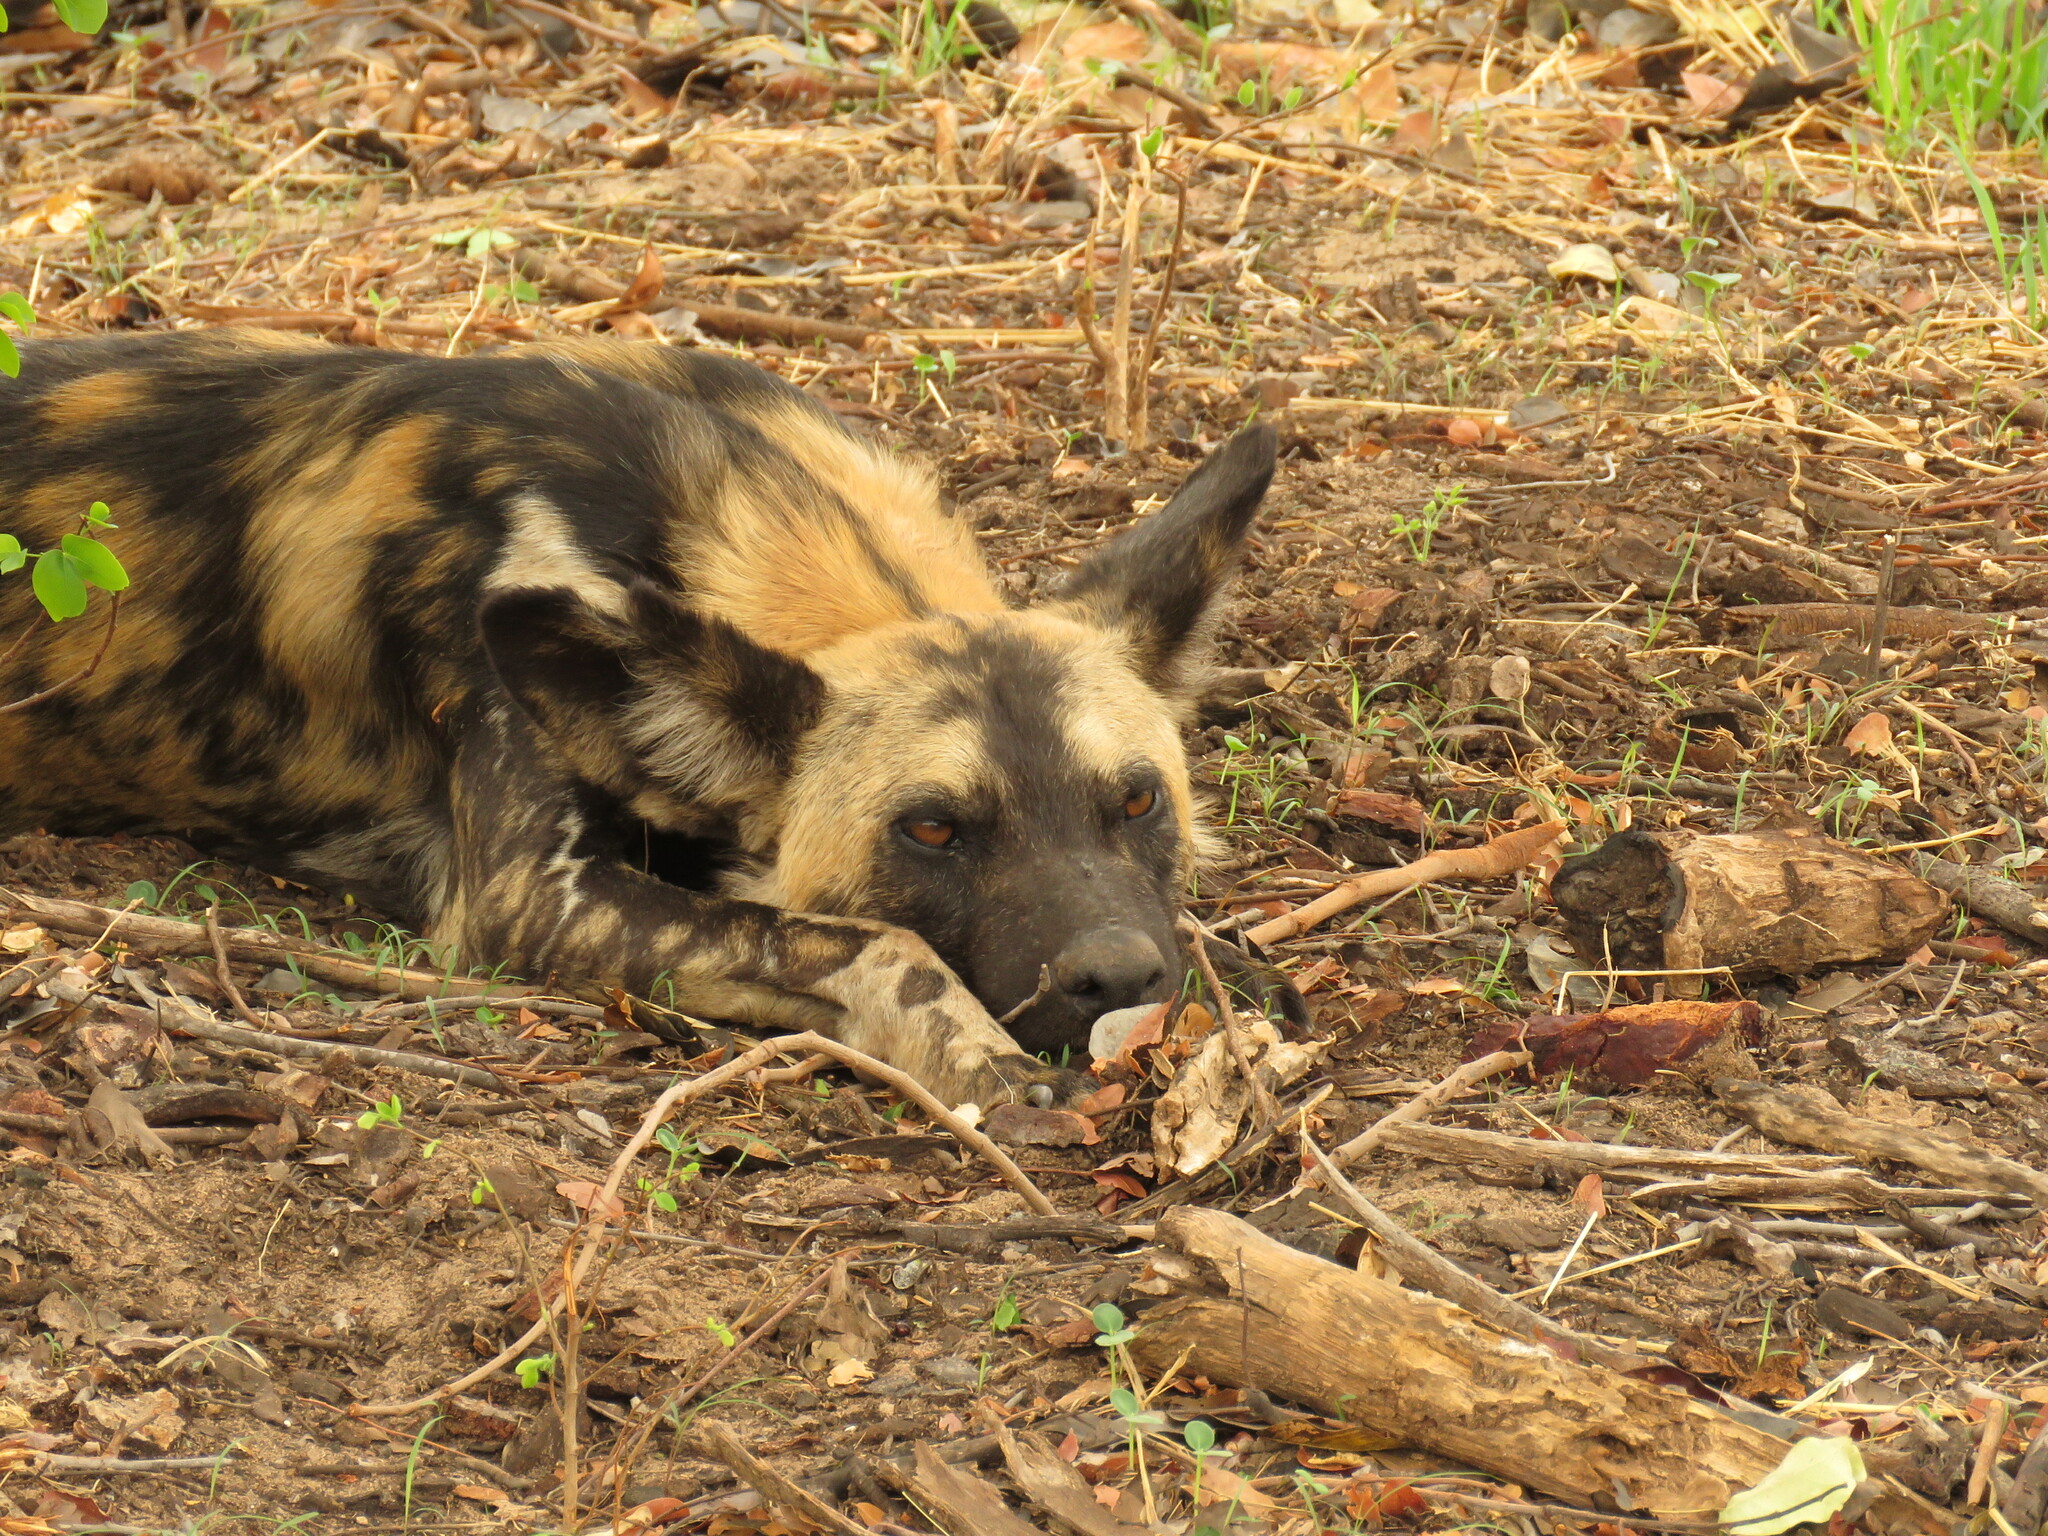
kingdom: Animalia
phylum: Chordata
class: Mammalia
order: Carnivora
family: Canidae
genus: Lycaon
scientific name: Lycaon pictus
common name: African wild dog
